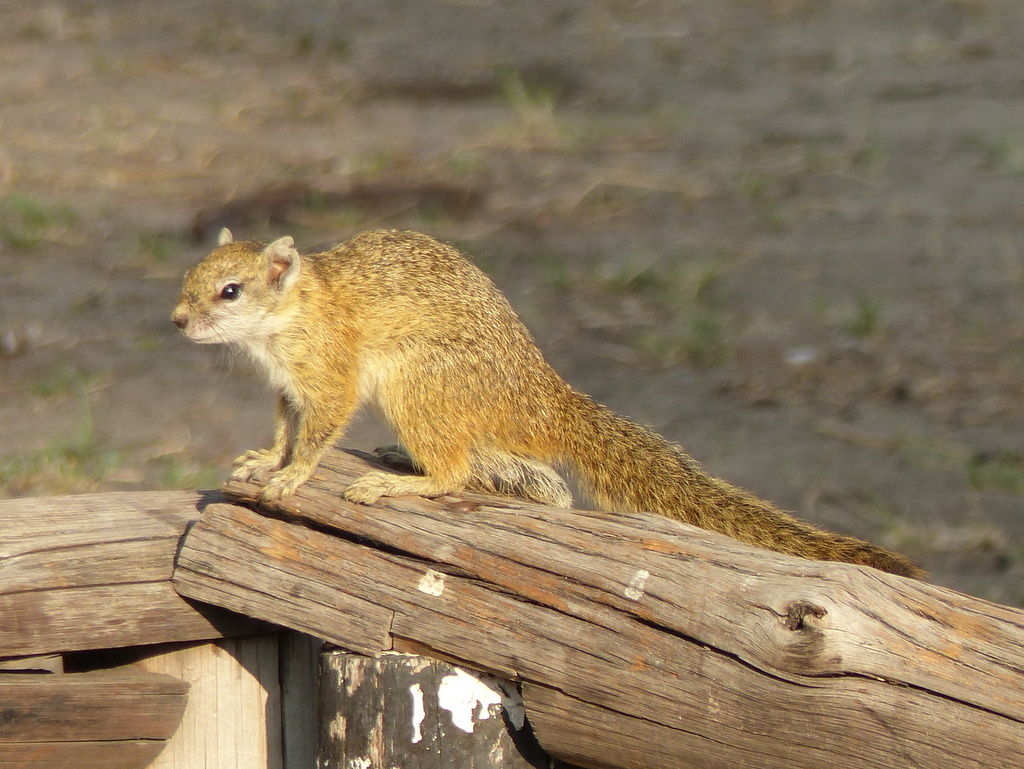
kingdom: Animalia
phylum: Chordata
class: Mammalia
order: Rodentia
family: Sciuridae
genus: Paraxerus
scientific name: Paraxerus cepapi
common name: Smith's bush squirrel
